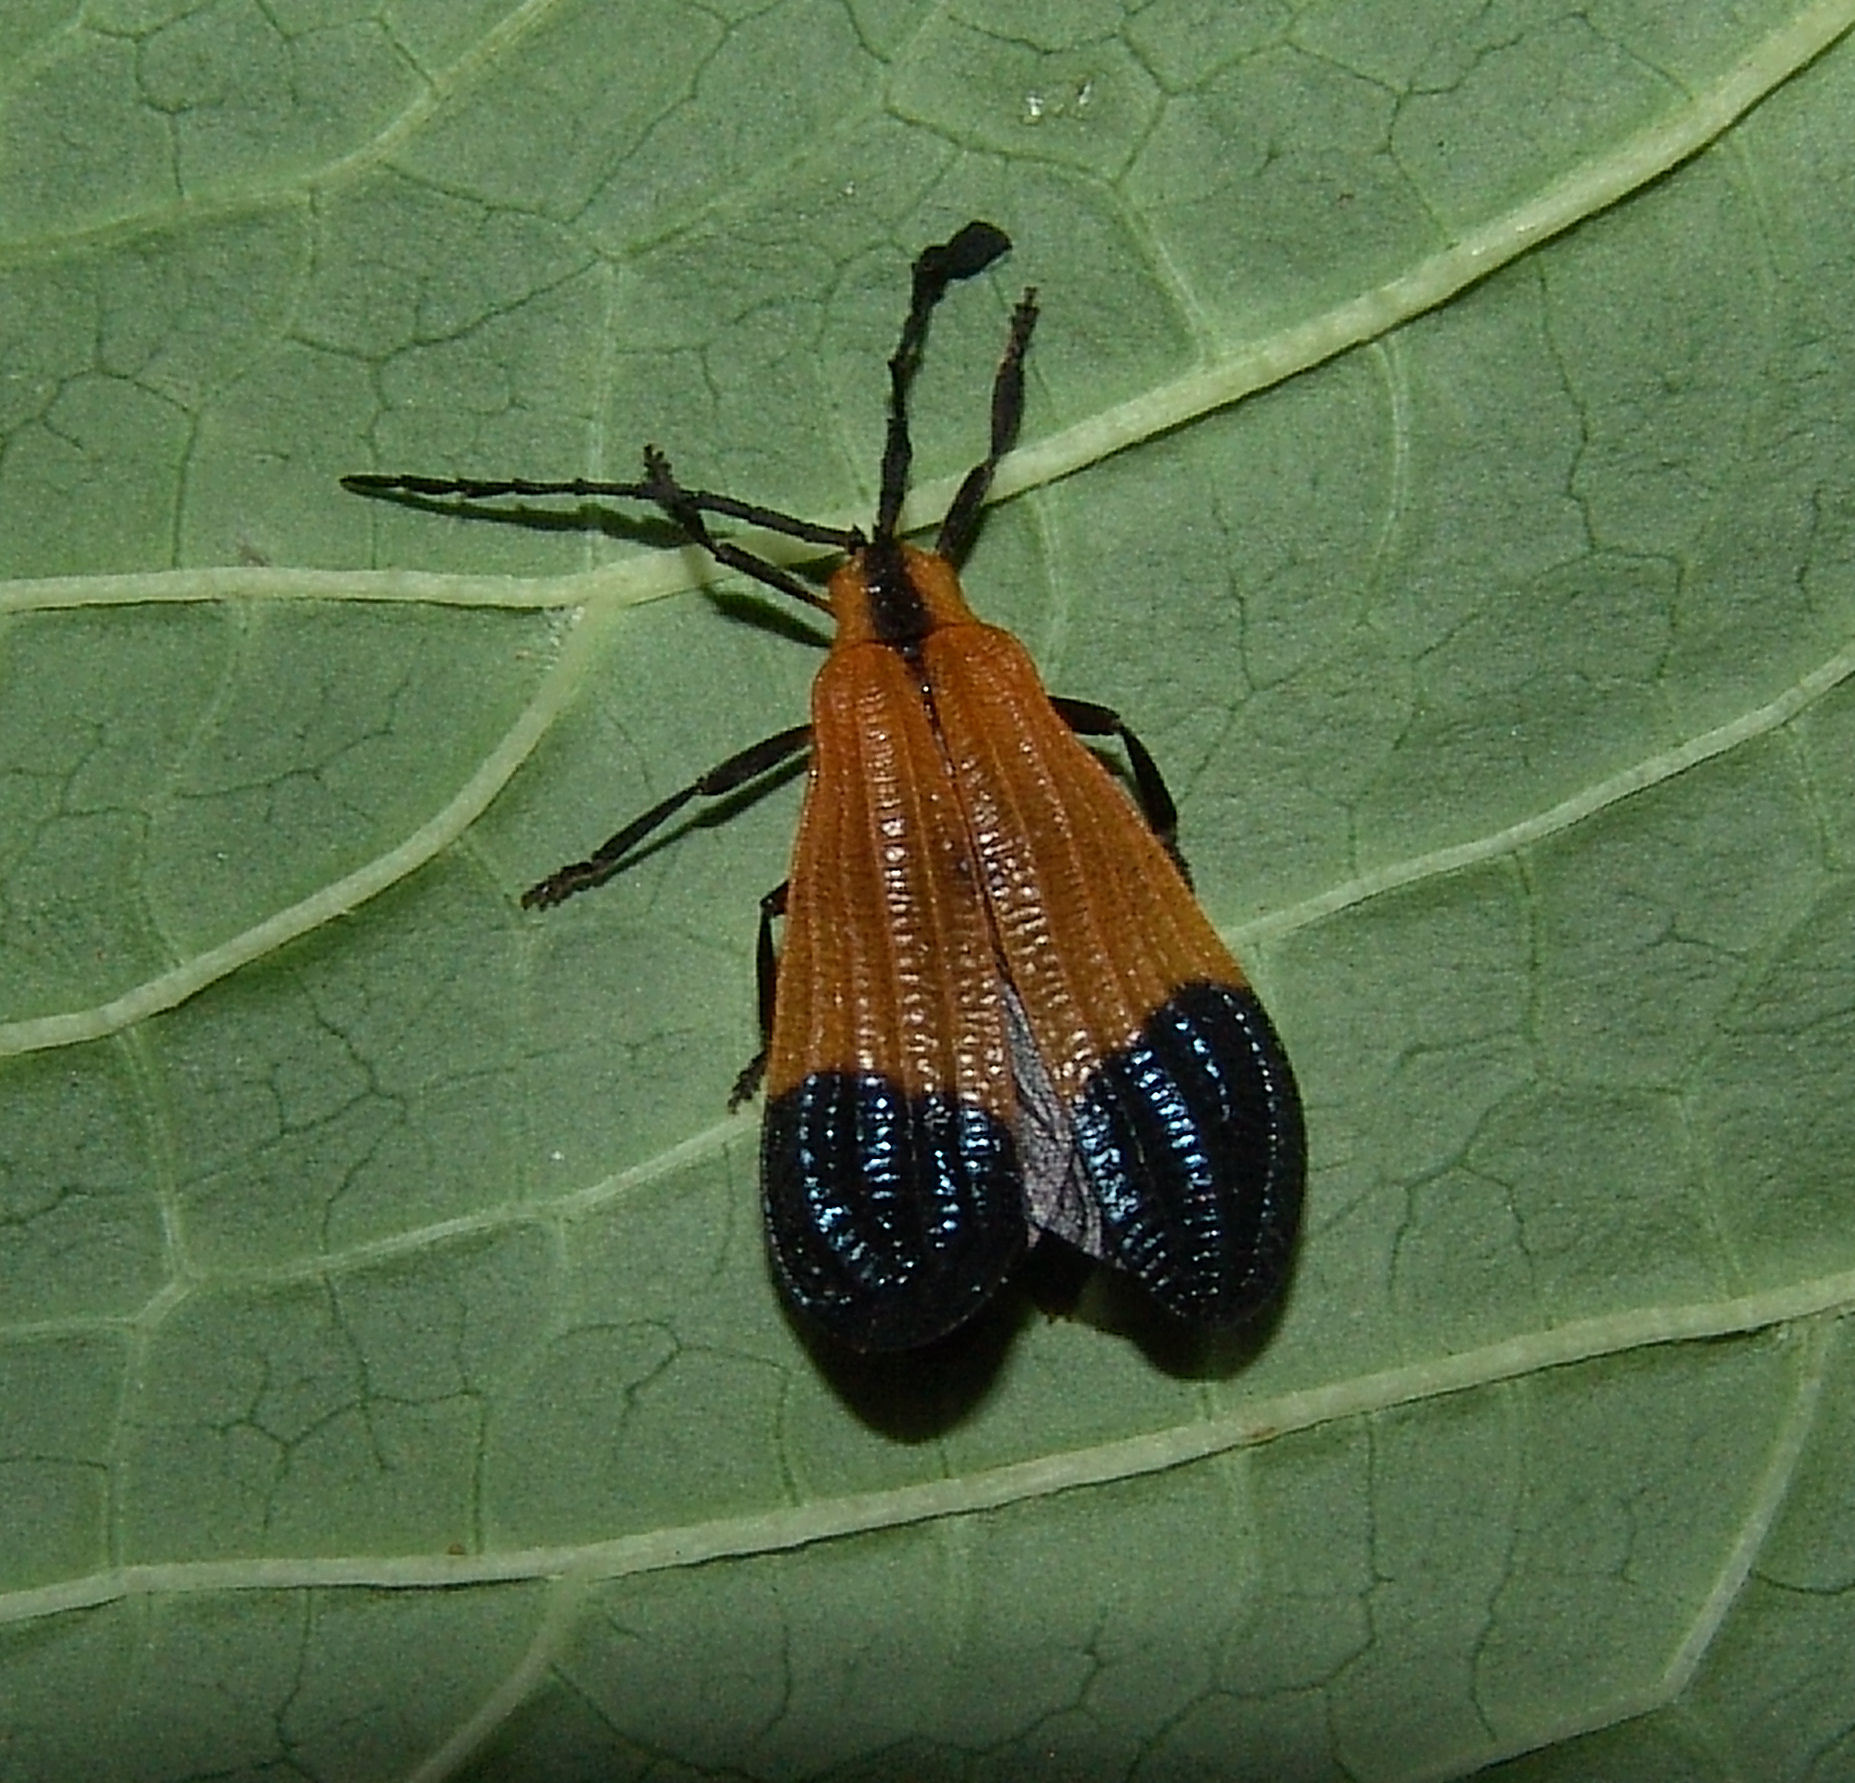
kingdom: Animalia
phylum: Arthropoda
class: Insecta
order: Coleoptera
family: Lycidae
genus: Calopteron
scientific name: Calopteron terminale
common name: End band net-winged beetle
